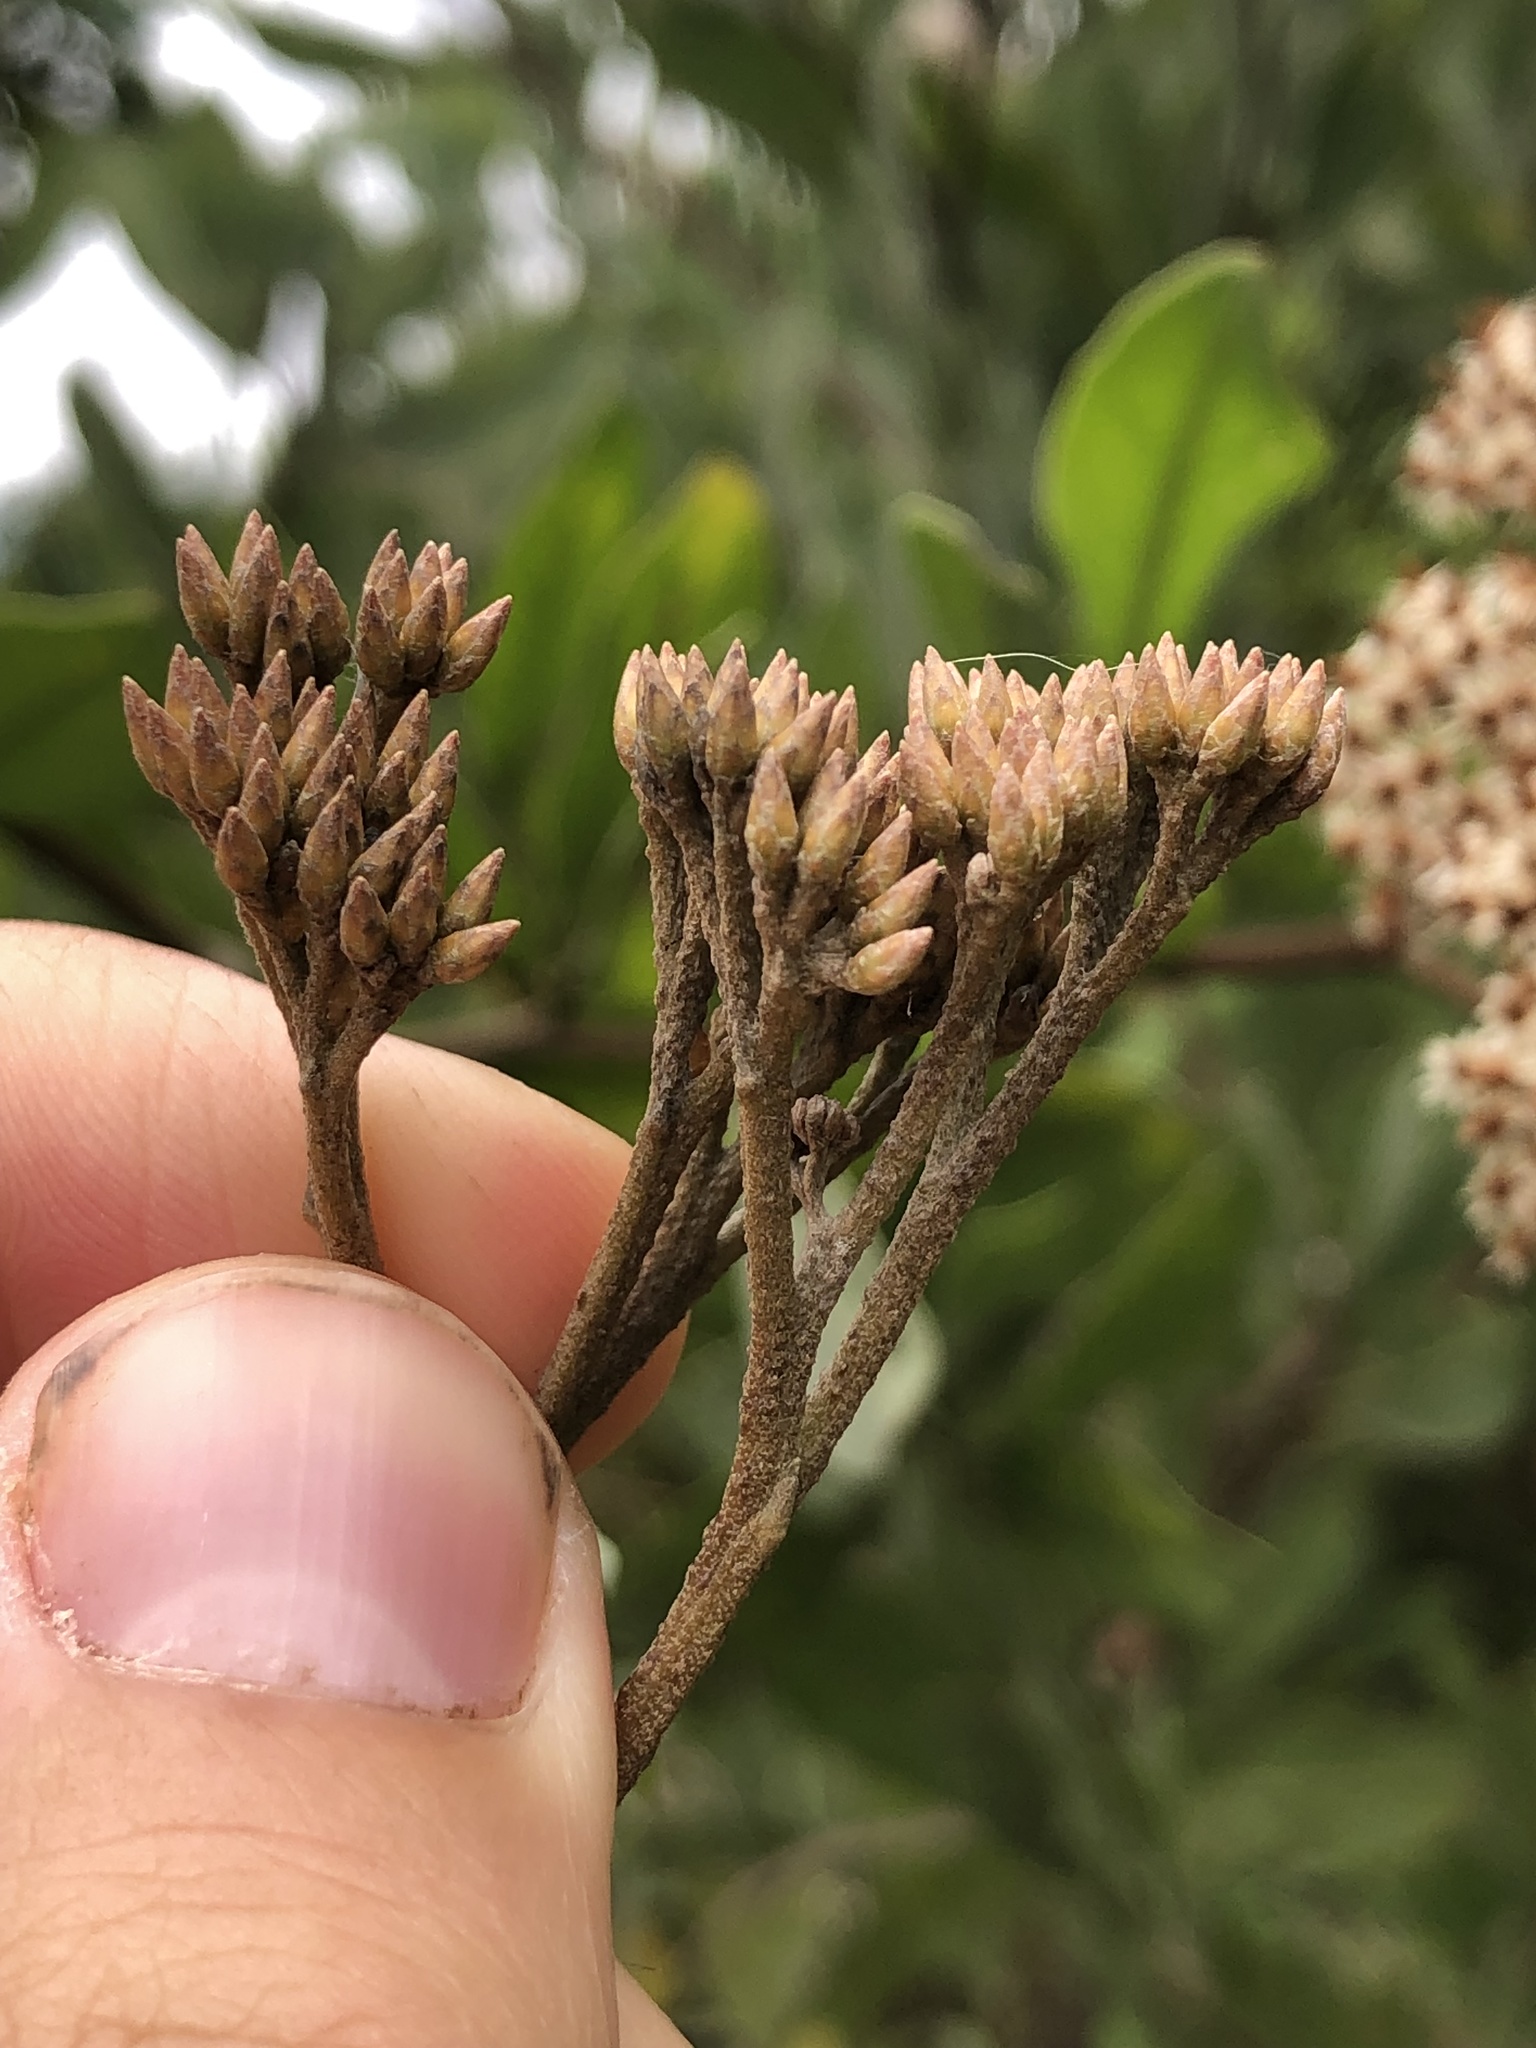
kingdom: Plantae
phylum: Tracheophyta
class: Magnoliopsida
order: Asterales
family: Asteraceae
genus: Tessaria
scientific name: Tessaria integrifolia
